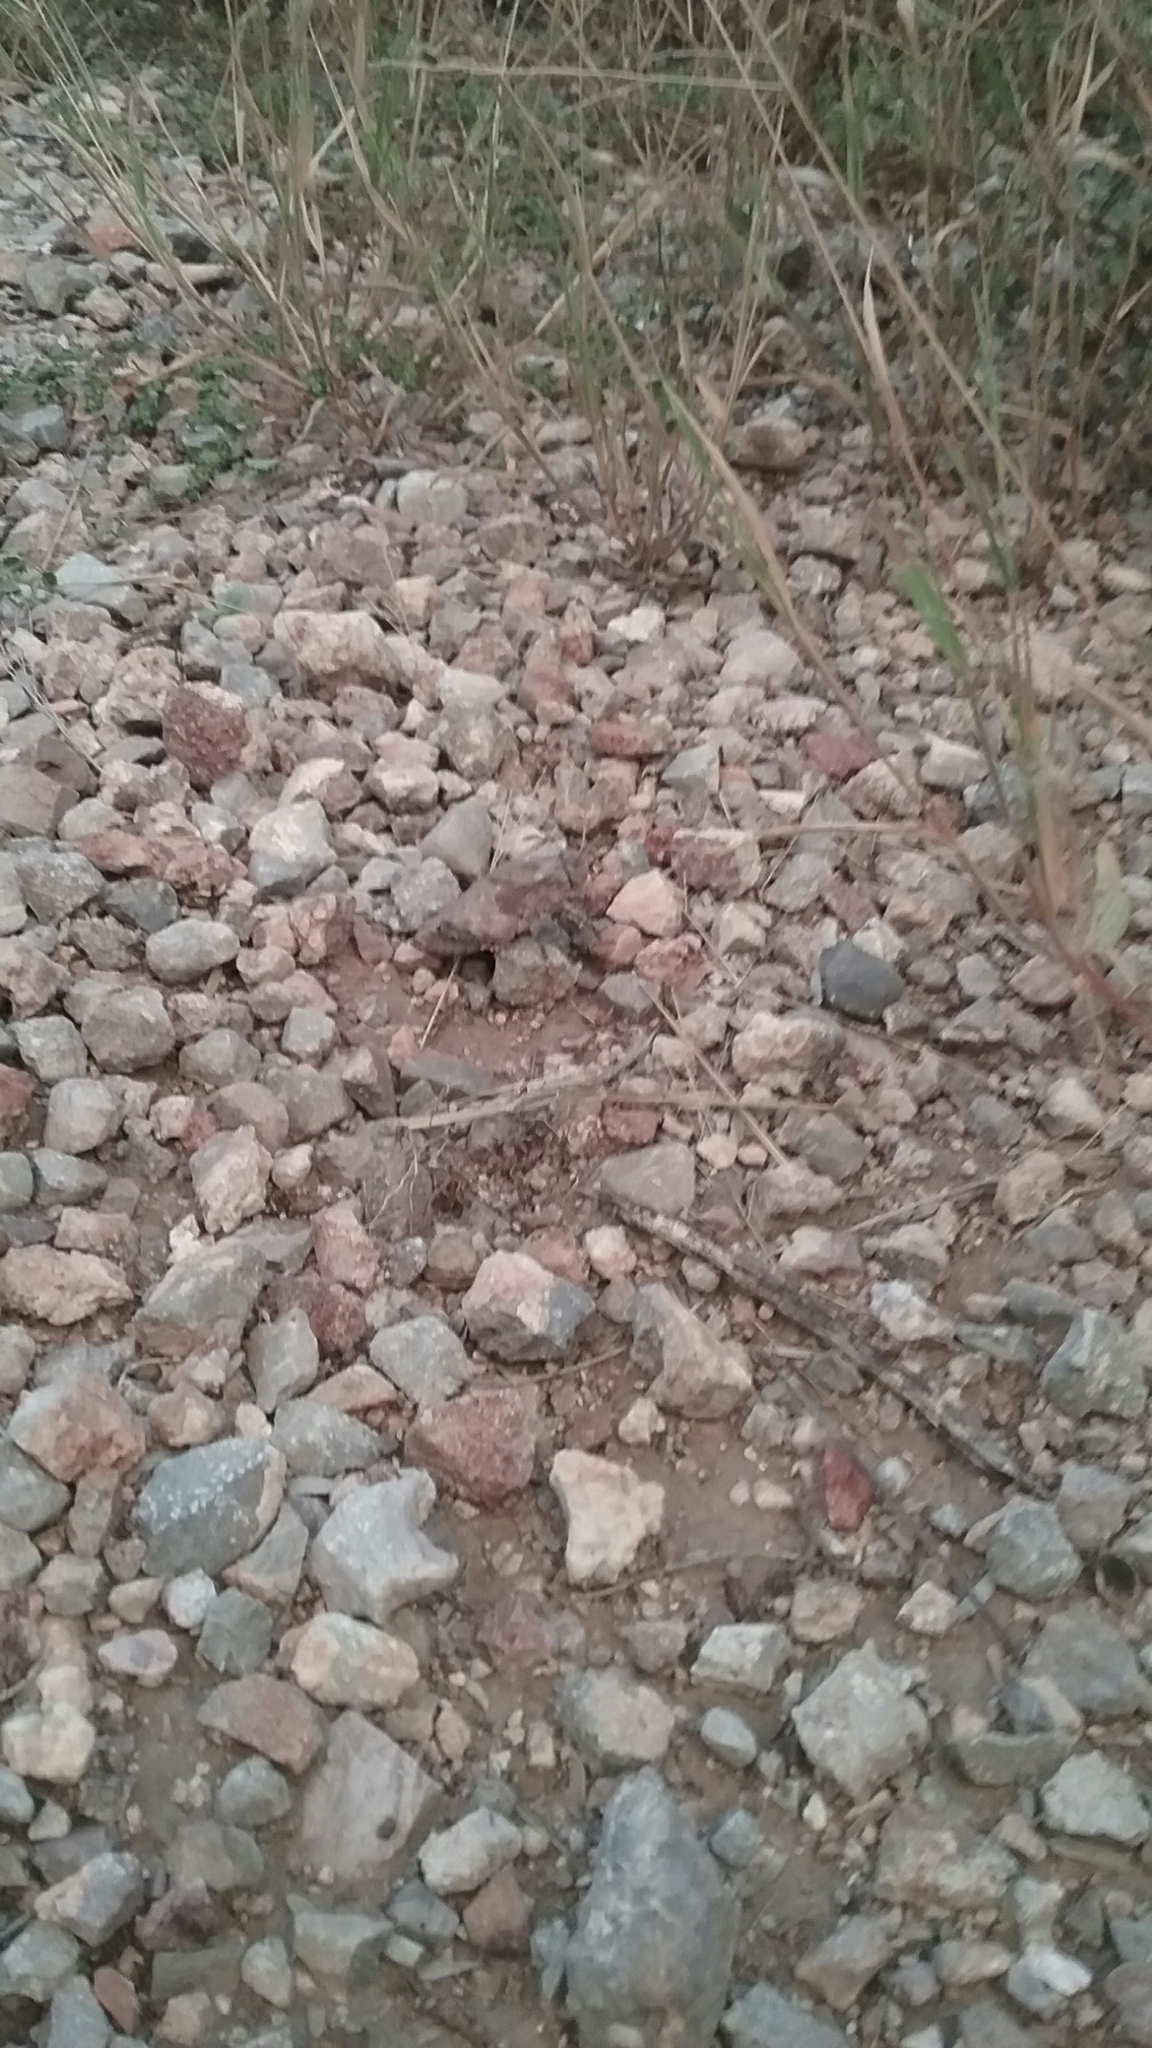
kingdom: Animalia
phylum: Arthropoda
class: Insecta
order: Orthoptera
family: Romaleidae
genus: Phrynotettix
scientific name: Phrynotettix tshivavensis
